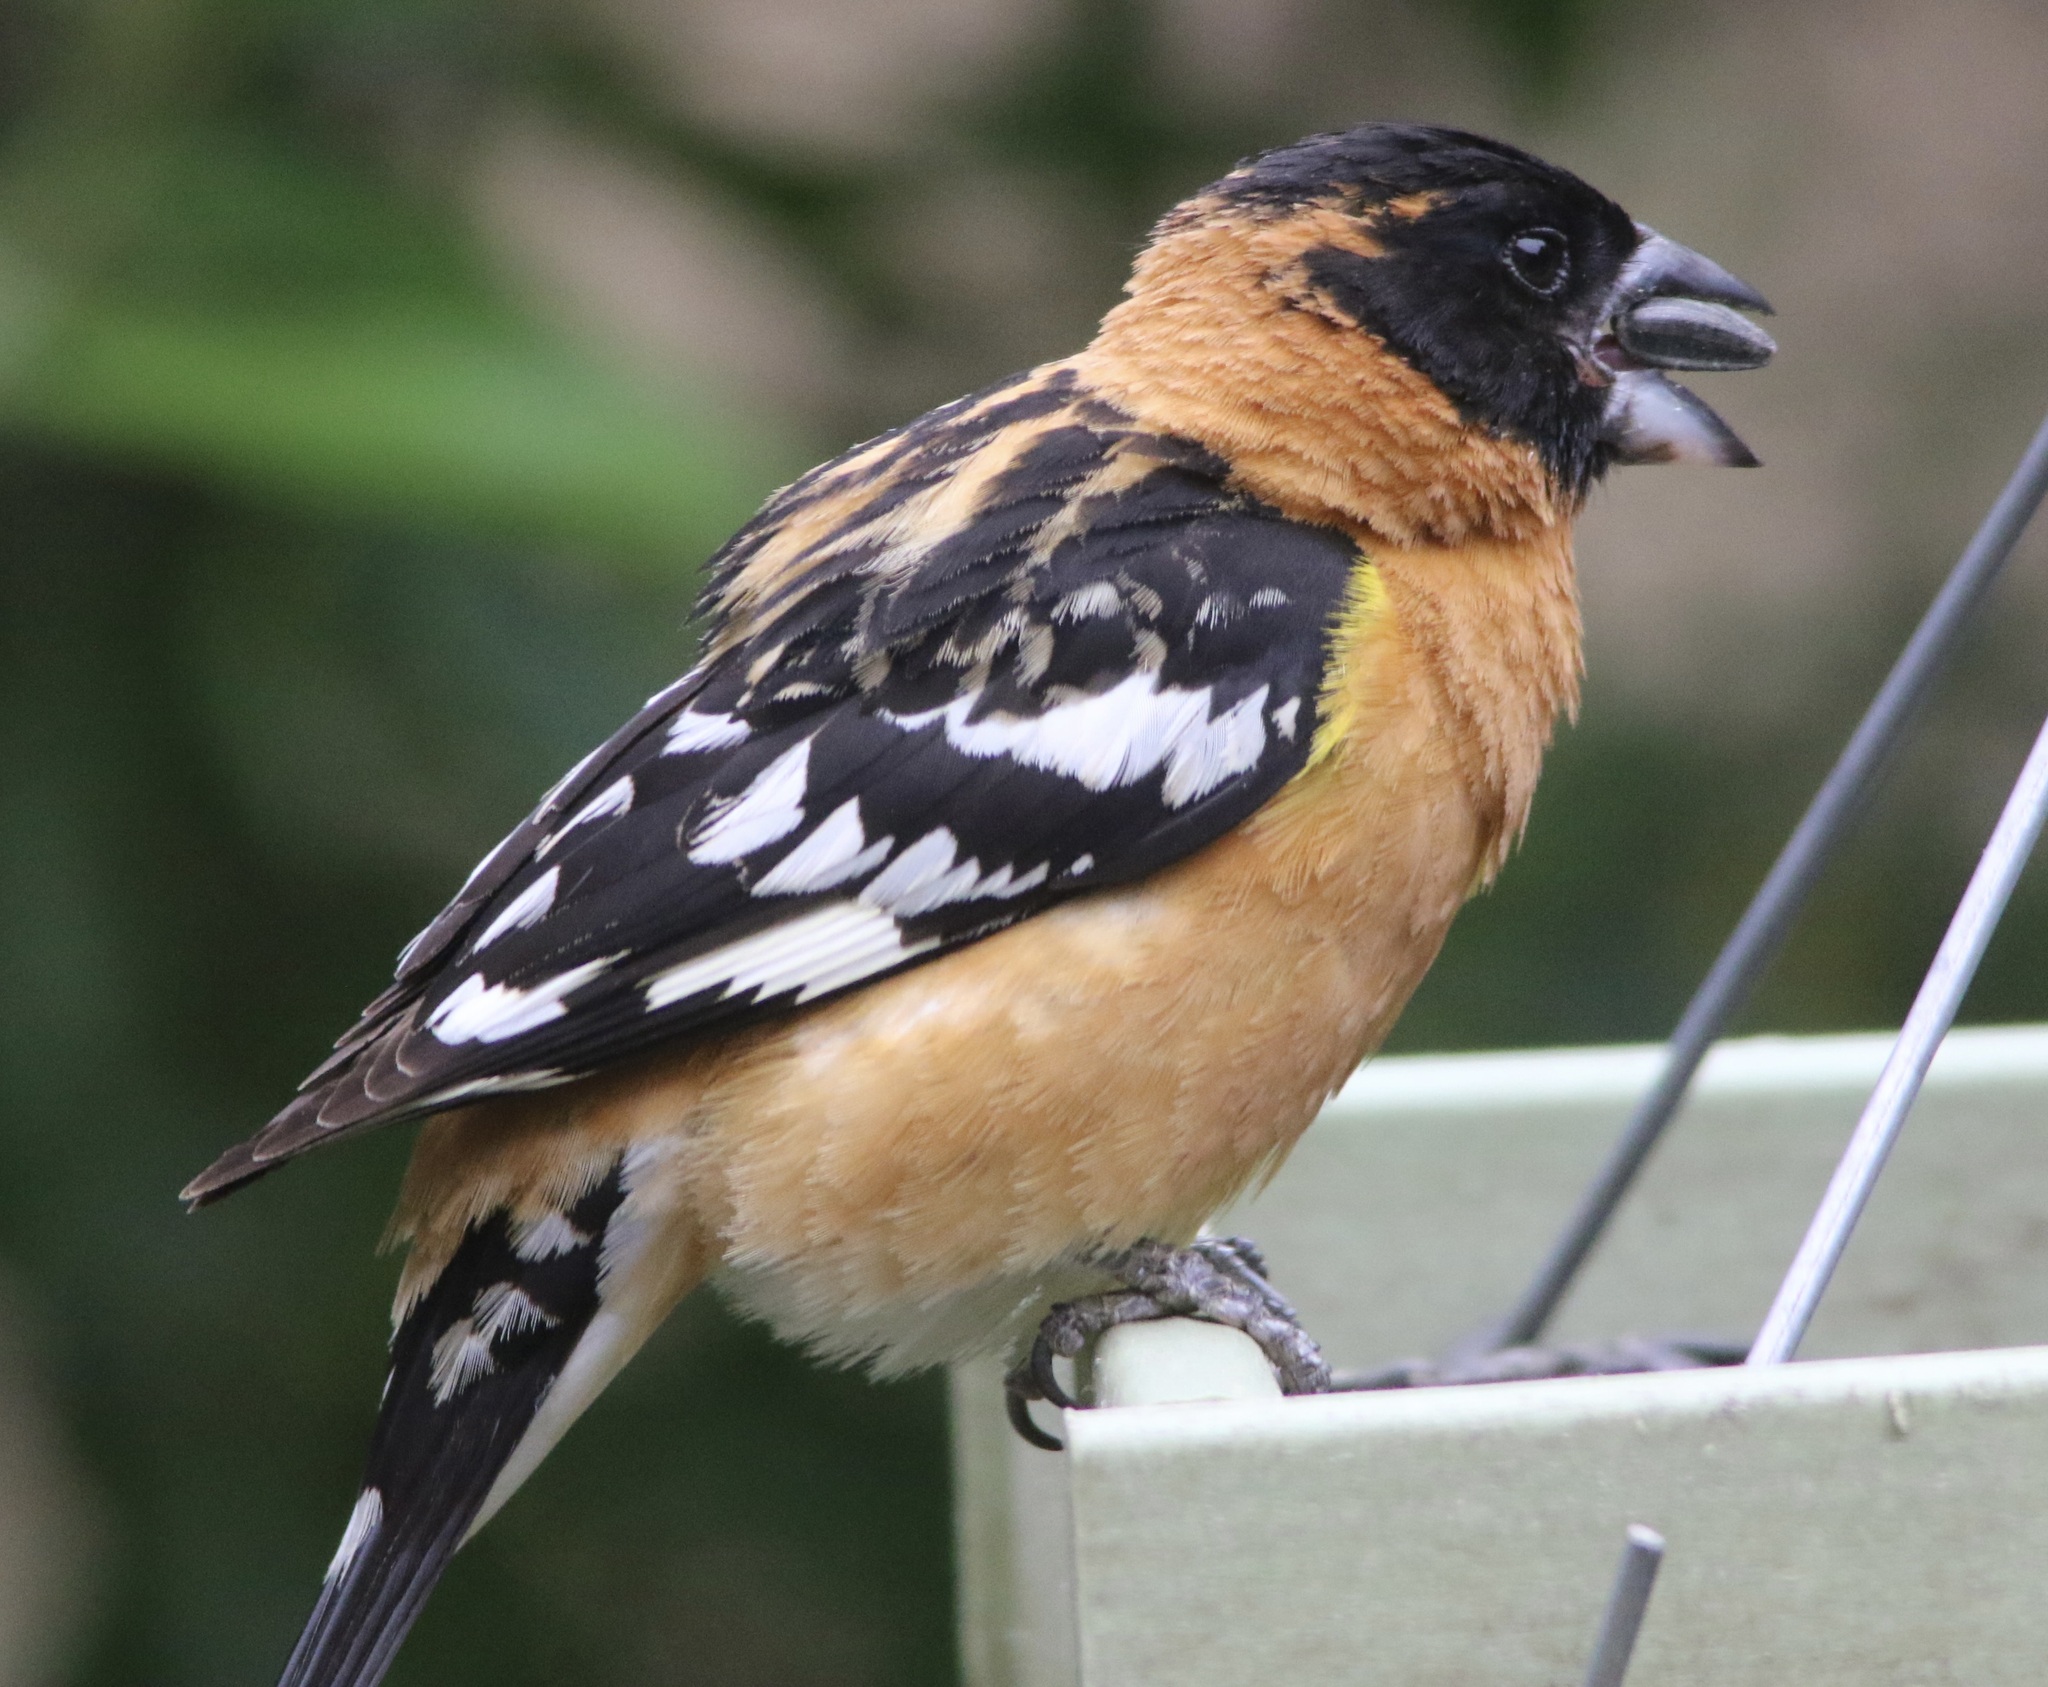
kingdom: Animalia
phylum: Chordata
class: Aves
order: Passeriformes
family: Cardinalidae
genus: Pheucticus
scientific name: Pheucticus melanocephalus
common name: Black-headed grosbeak
